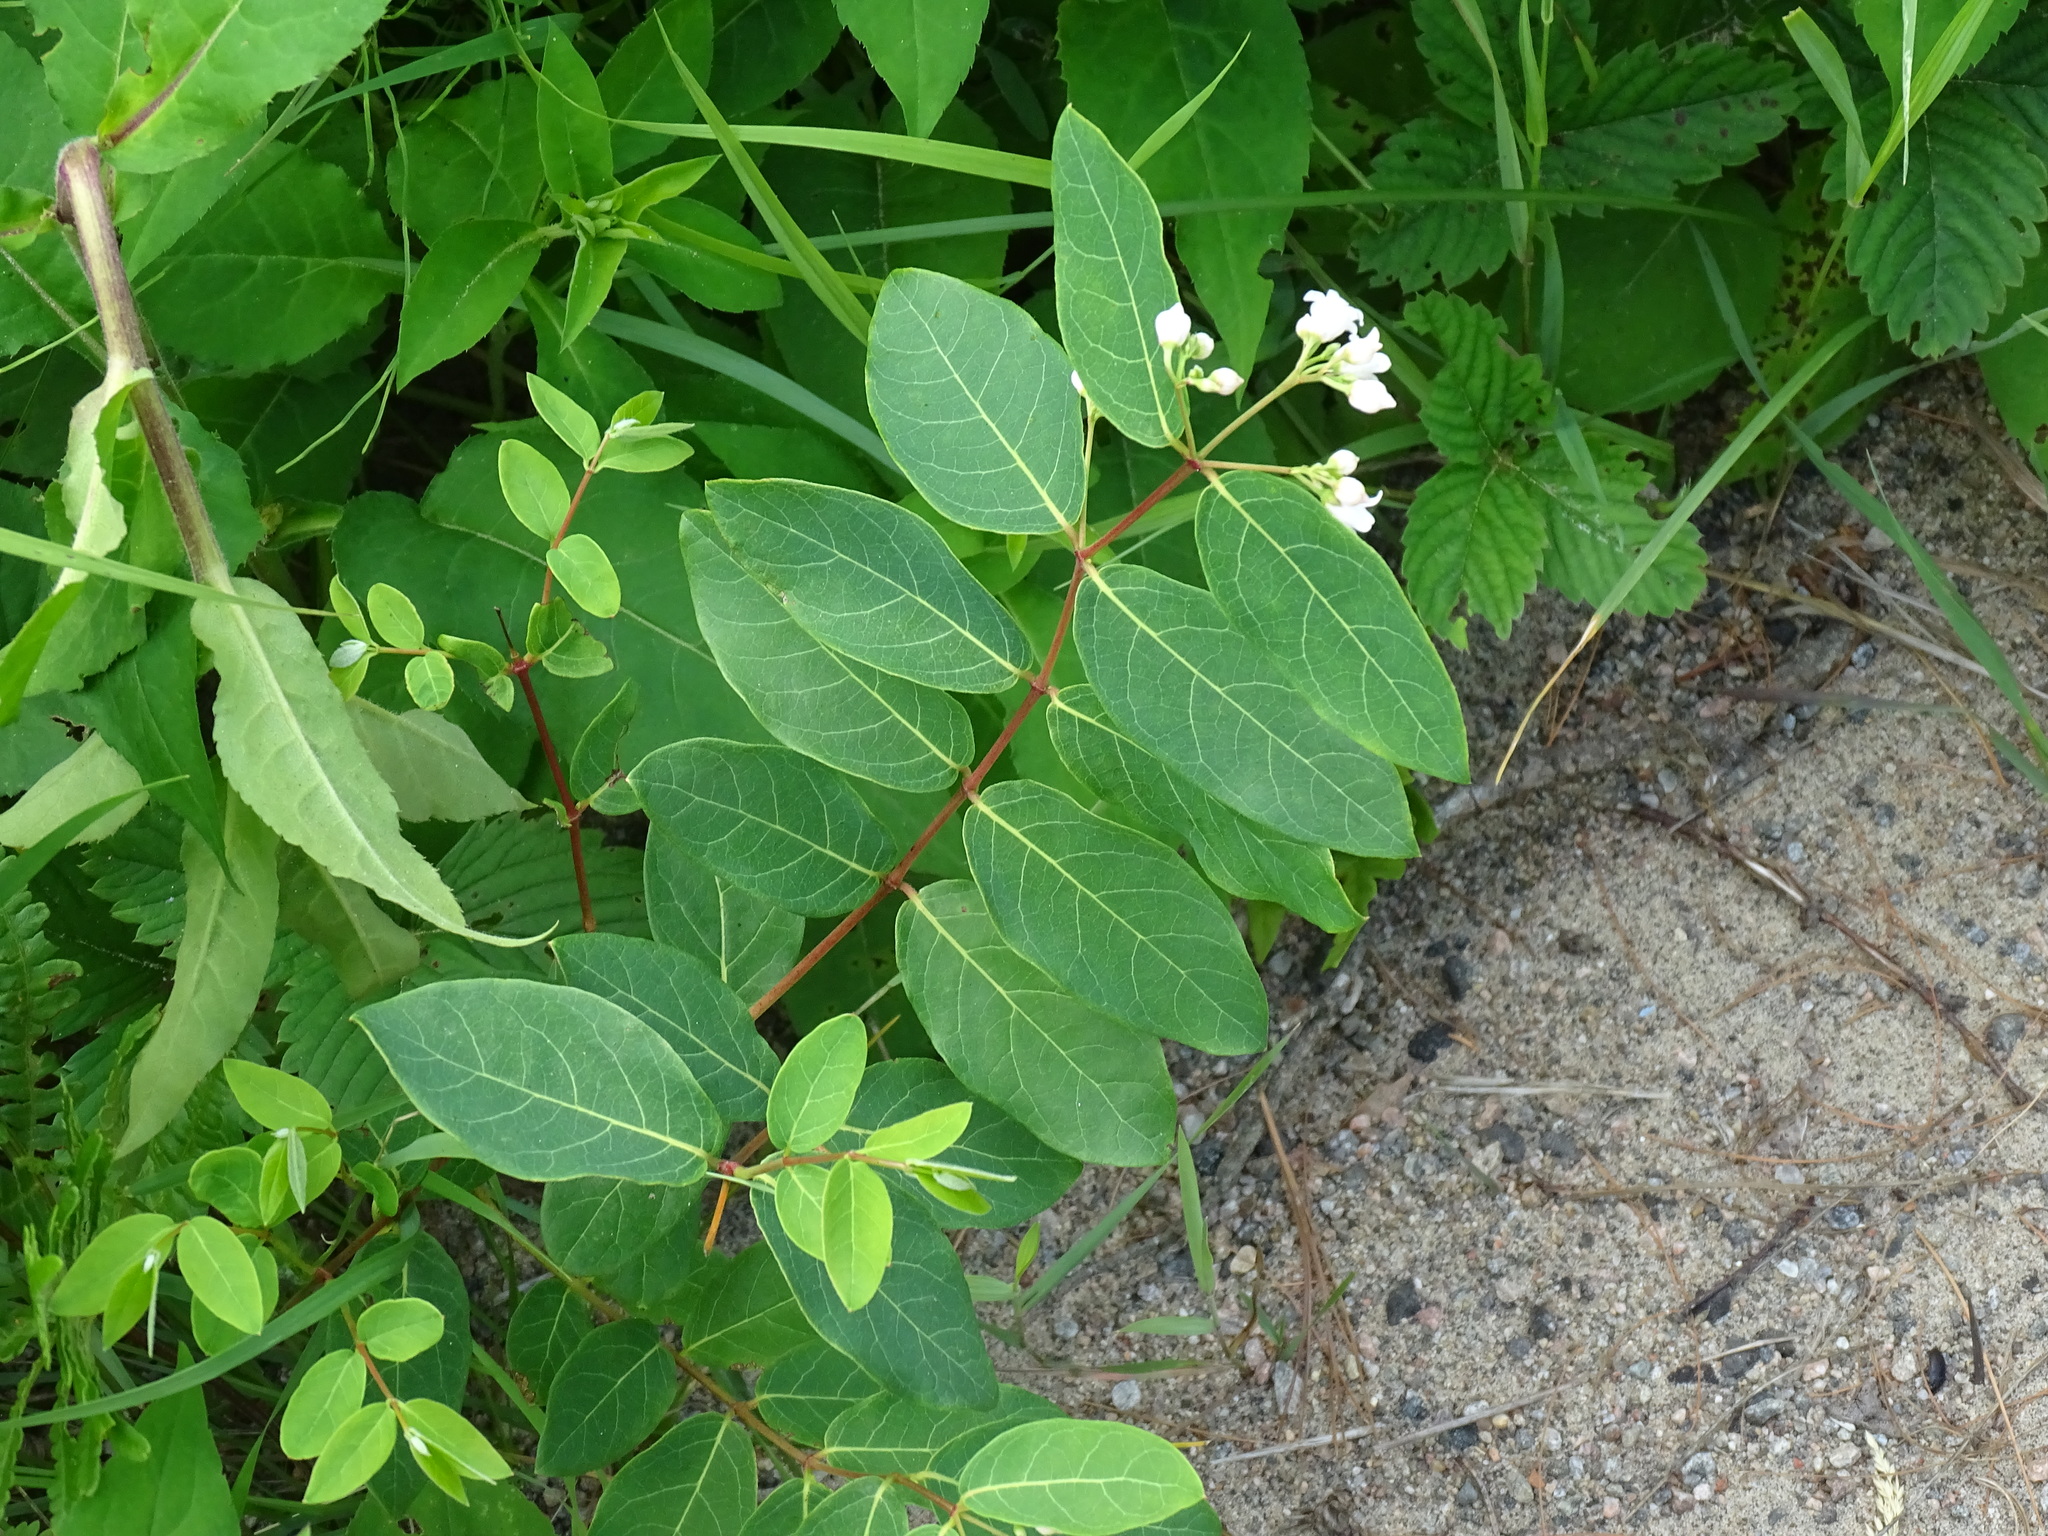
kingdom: Plantae
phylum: Tracheophyta
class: Magnoliopsida
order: Gentianales
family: Apocynaceae
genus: Apocynum
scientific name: Apocynum androsaemifolium
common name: Spreading dogbane
